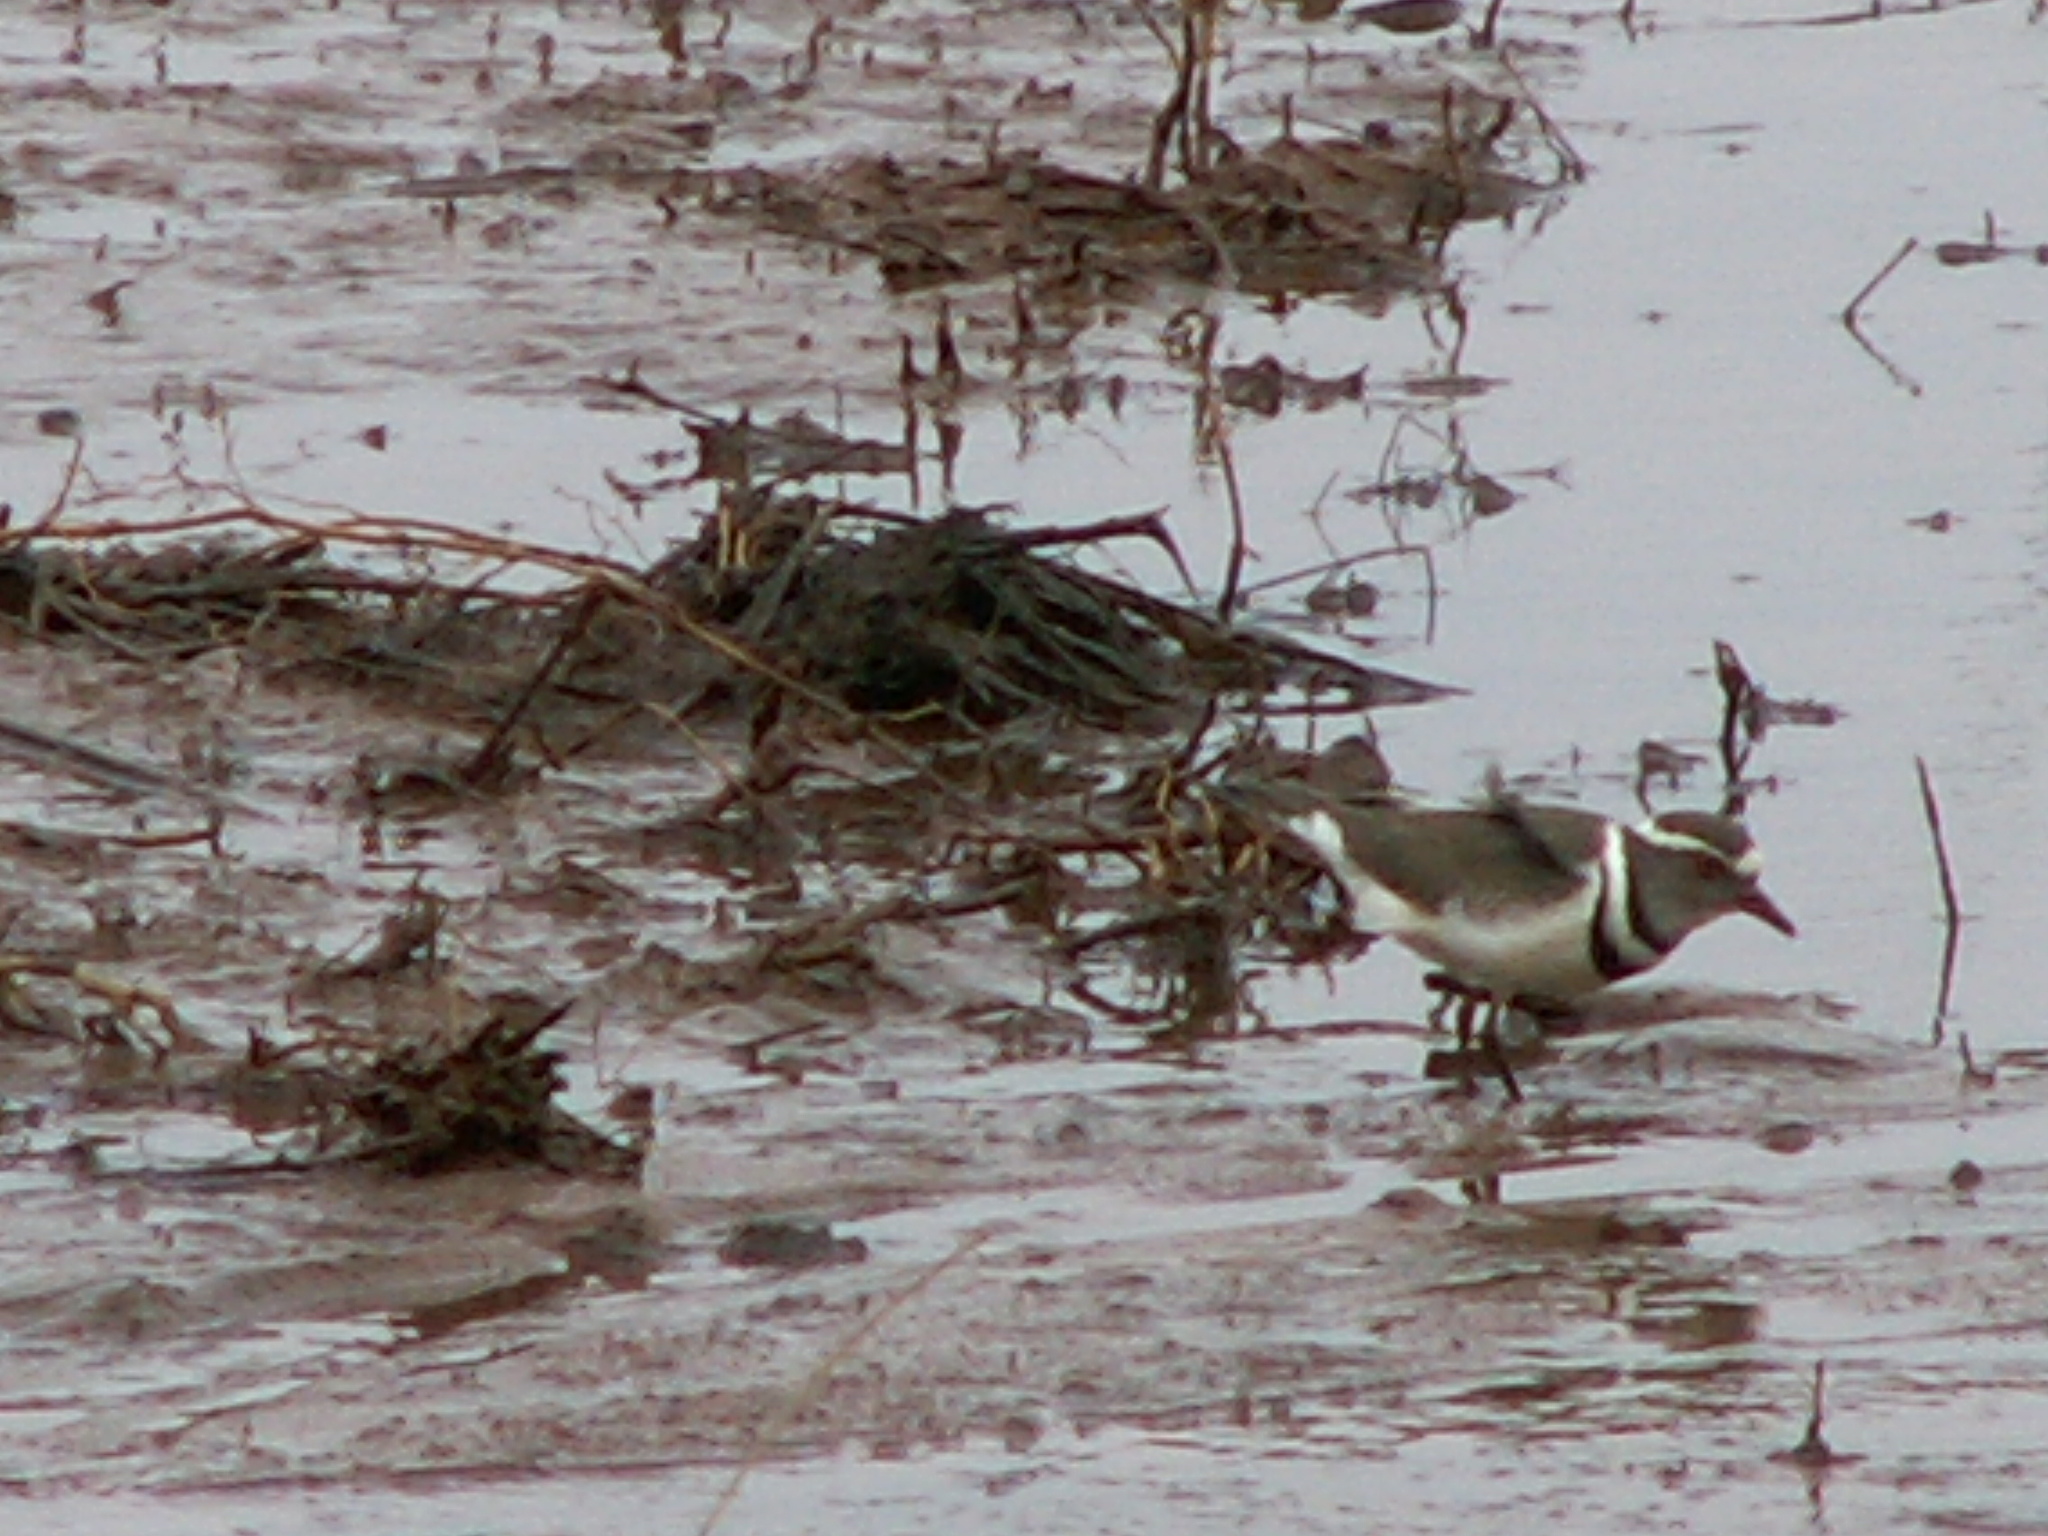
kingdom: Animalia
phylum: Chordata
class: Aves
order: Charadriiformes
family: Charadriidae
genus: Charadrius
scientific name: Charadrius tricollaris
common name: Three-banded plover
